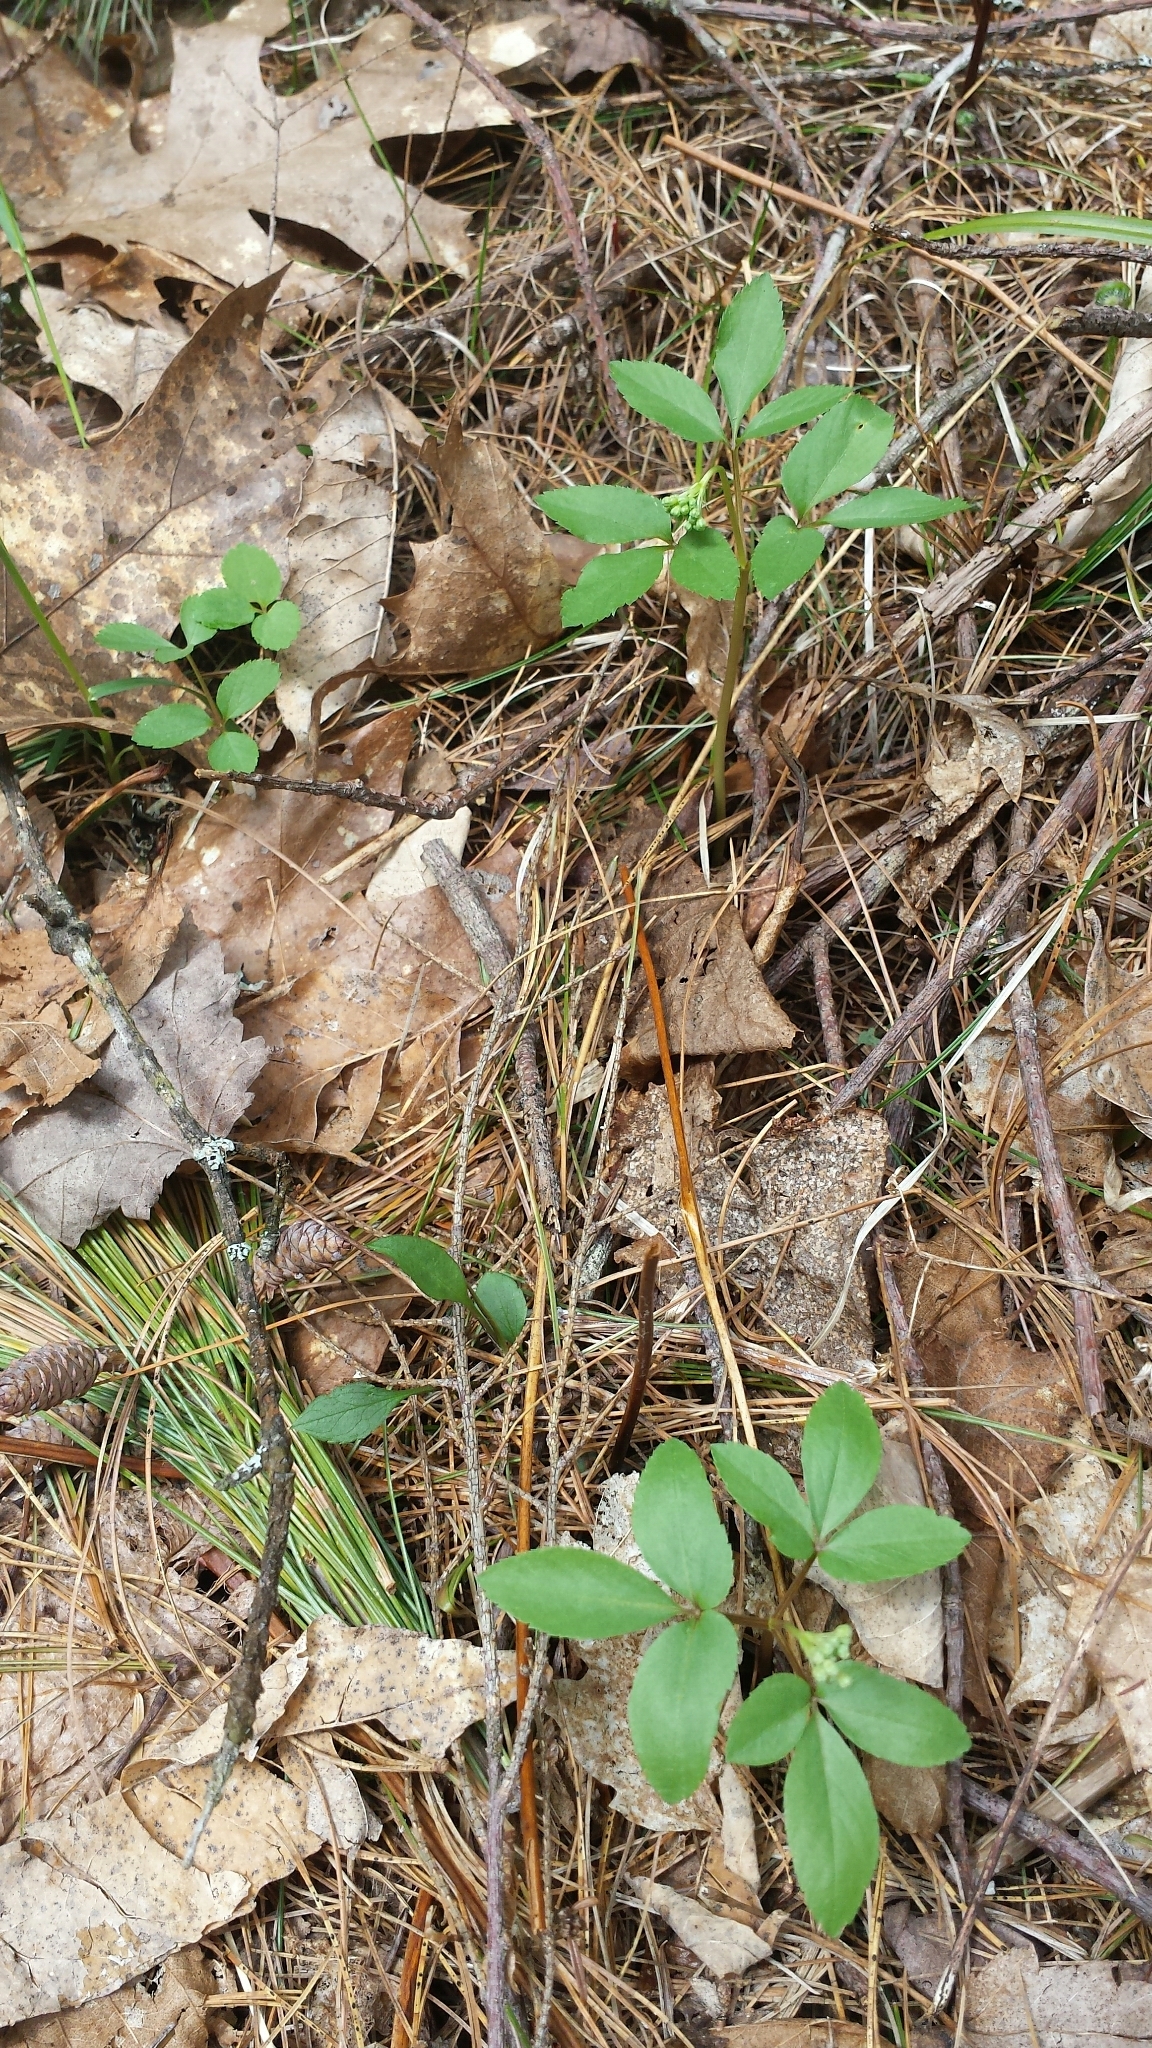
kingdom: Plantae
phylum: Tracheophyta
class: Magnoliopsida
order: Apiales
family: Araliaceae
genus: Panax
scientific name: Panax trifolius
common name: Dwarf ginseng
